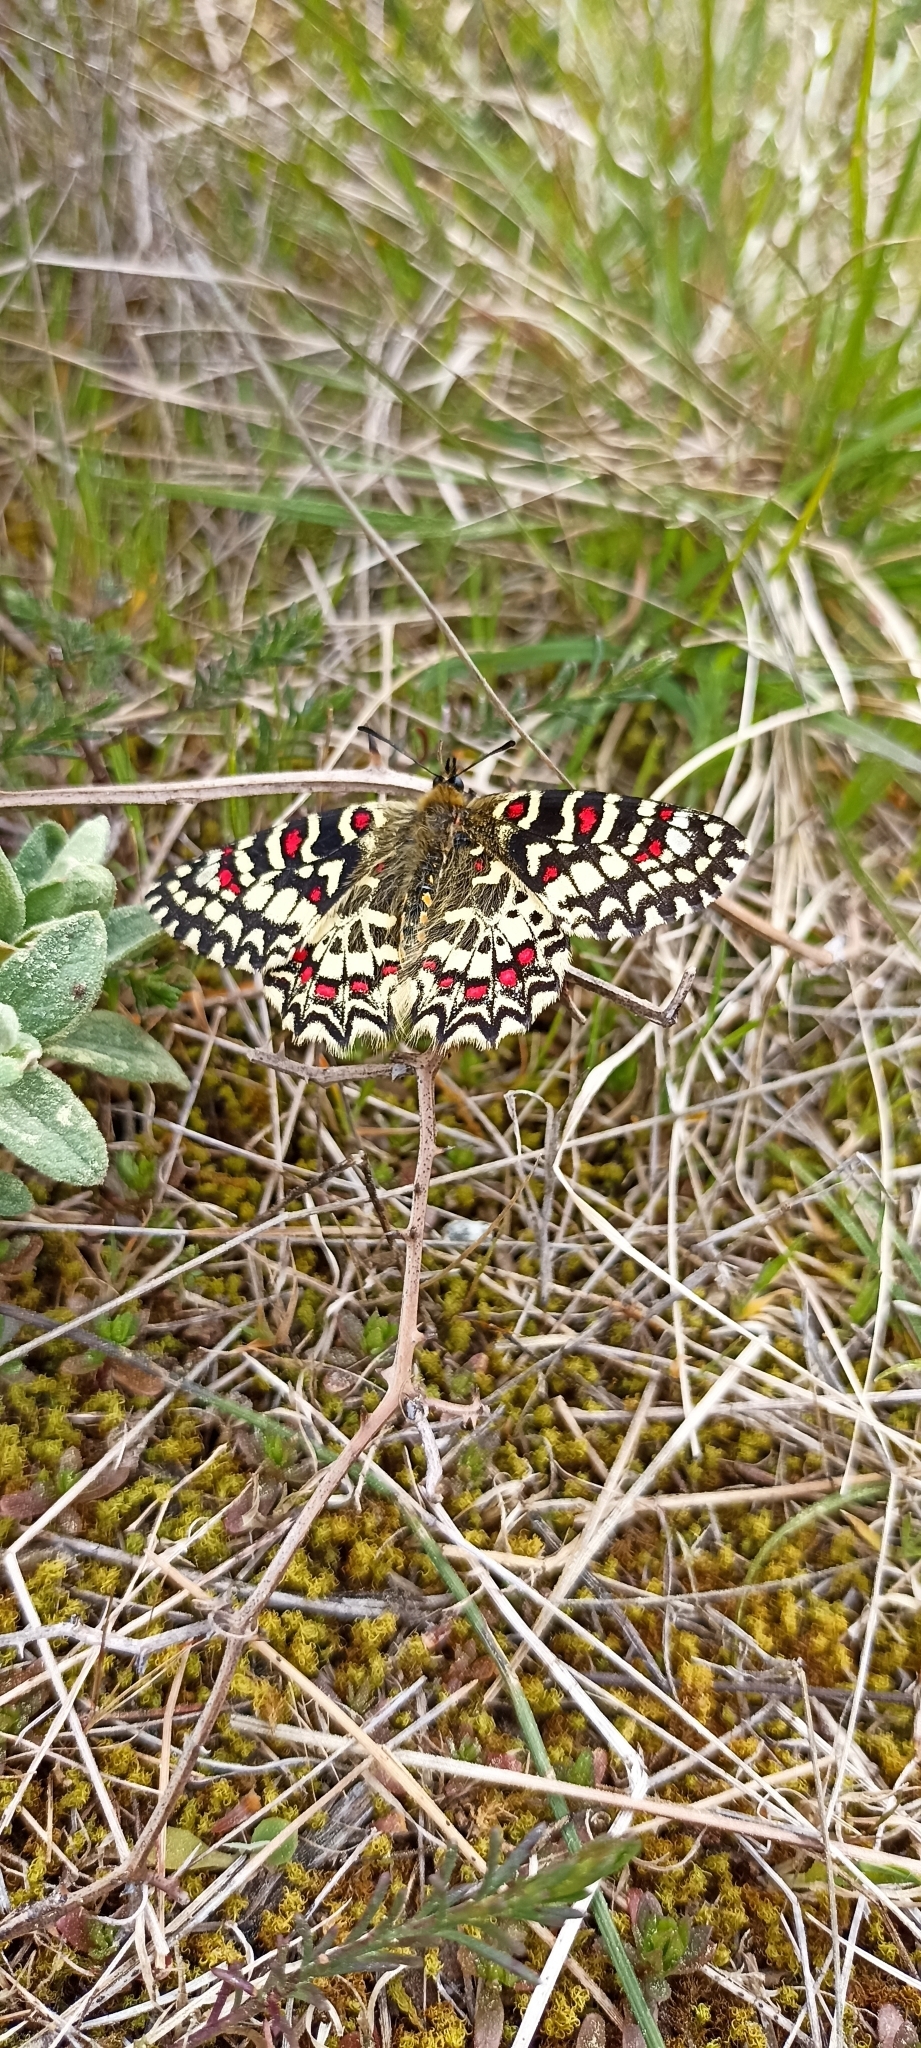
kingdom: Animalia
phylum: Arthropoda
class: Insecta
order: Lepidoptera
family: Papilionidae
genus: Zerynthia
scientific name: Zerynthia rumina
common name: Spanish festoon
